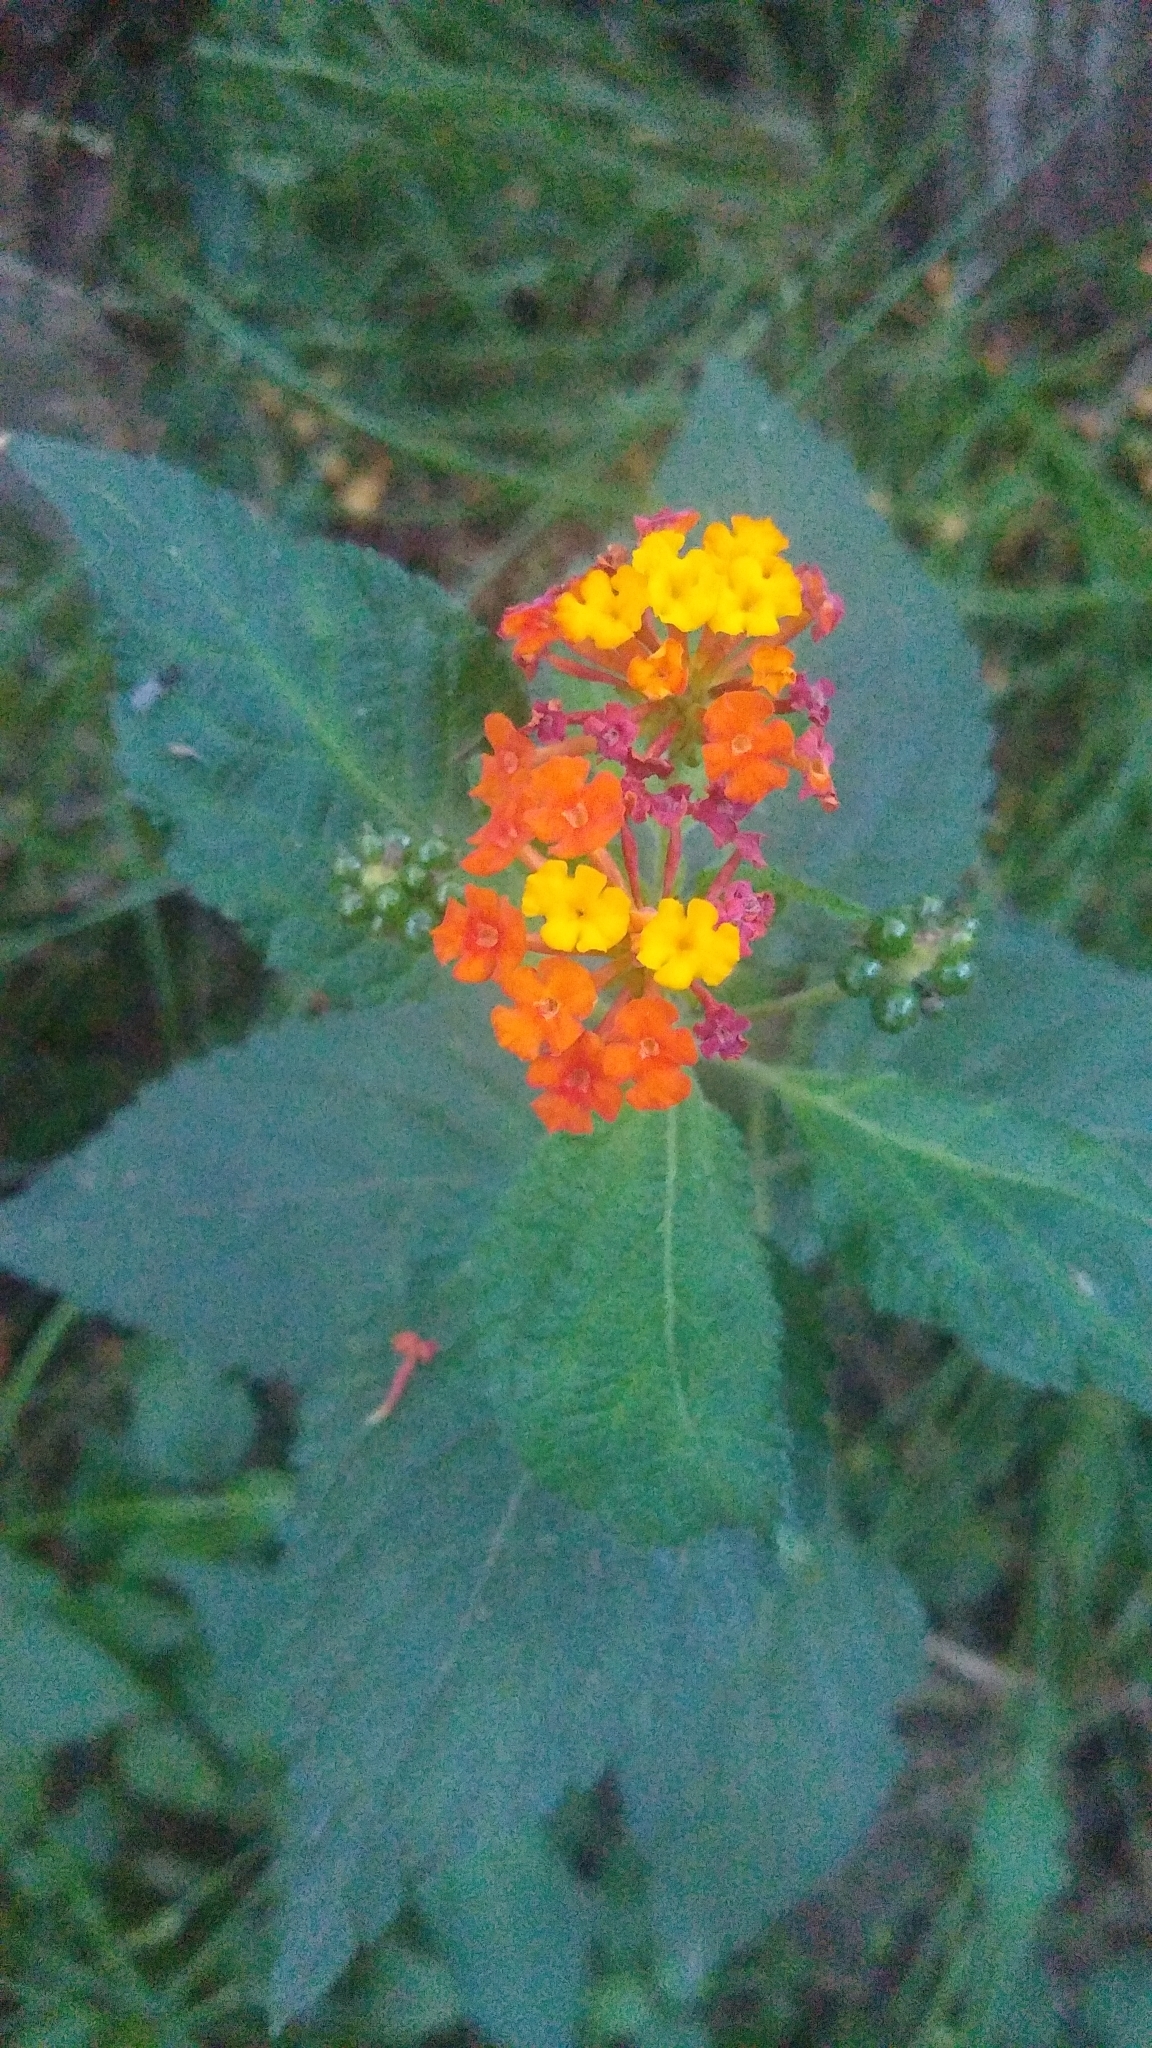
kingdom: Plantae
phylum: Tracheophyta
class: Magnoliopsida
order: Lamiales
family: Verbenaceae
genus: Lantana
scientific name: Lantana camara
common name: Lantana
